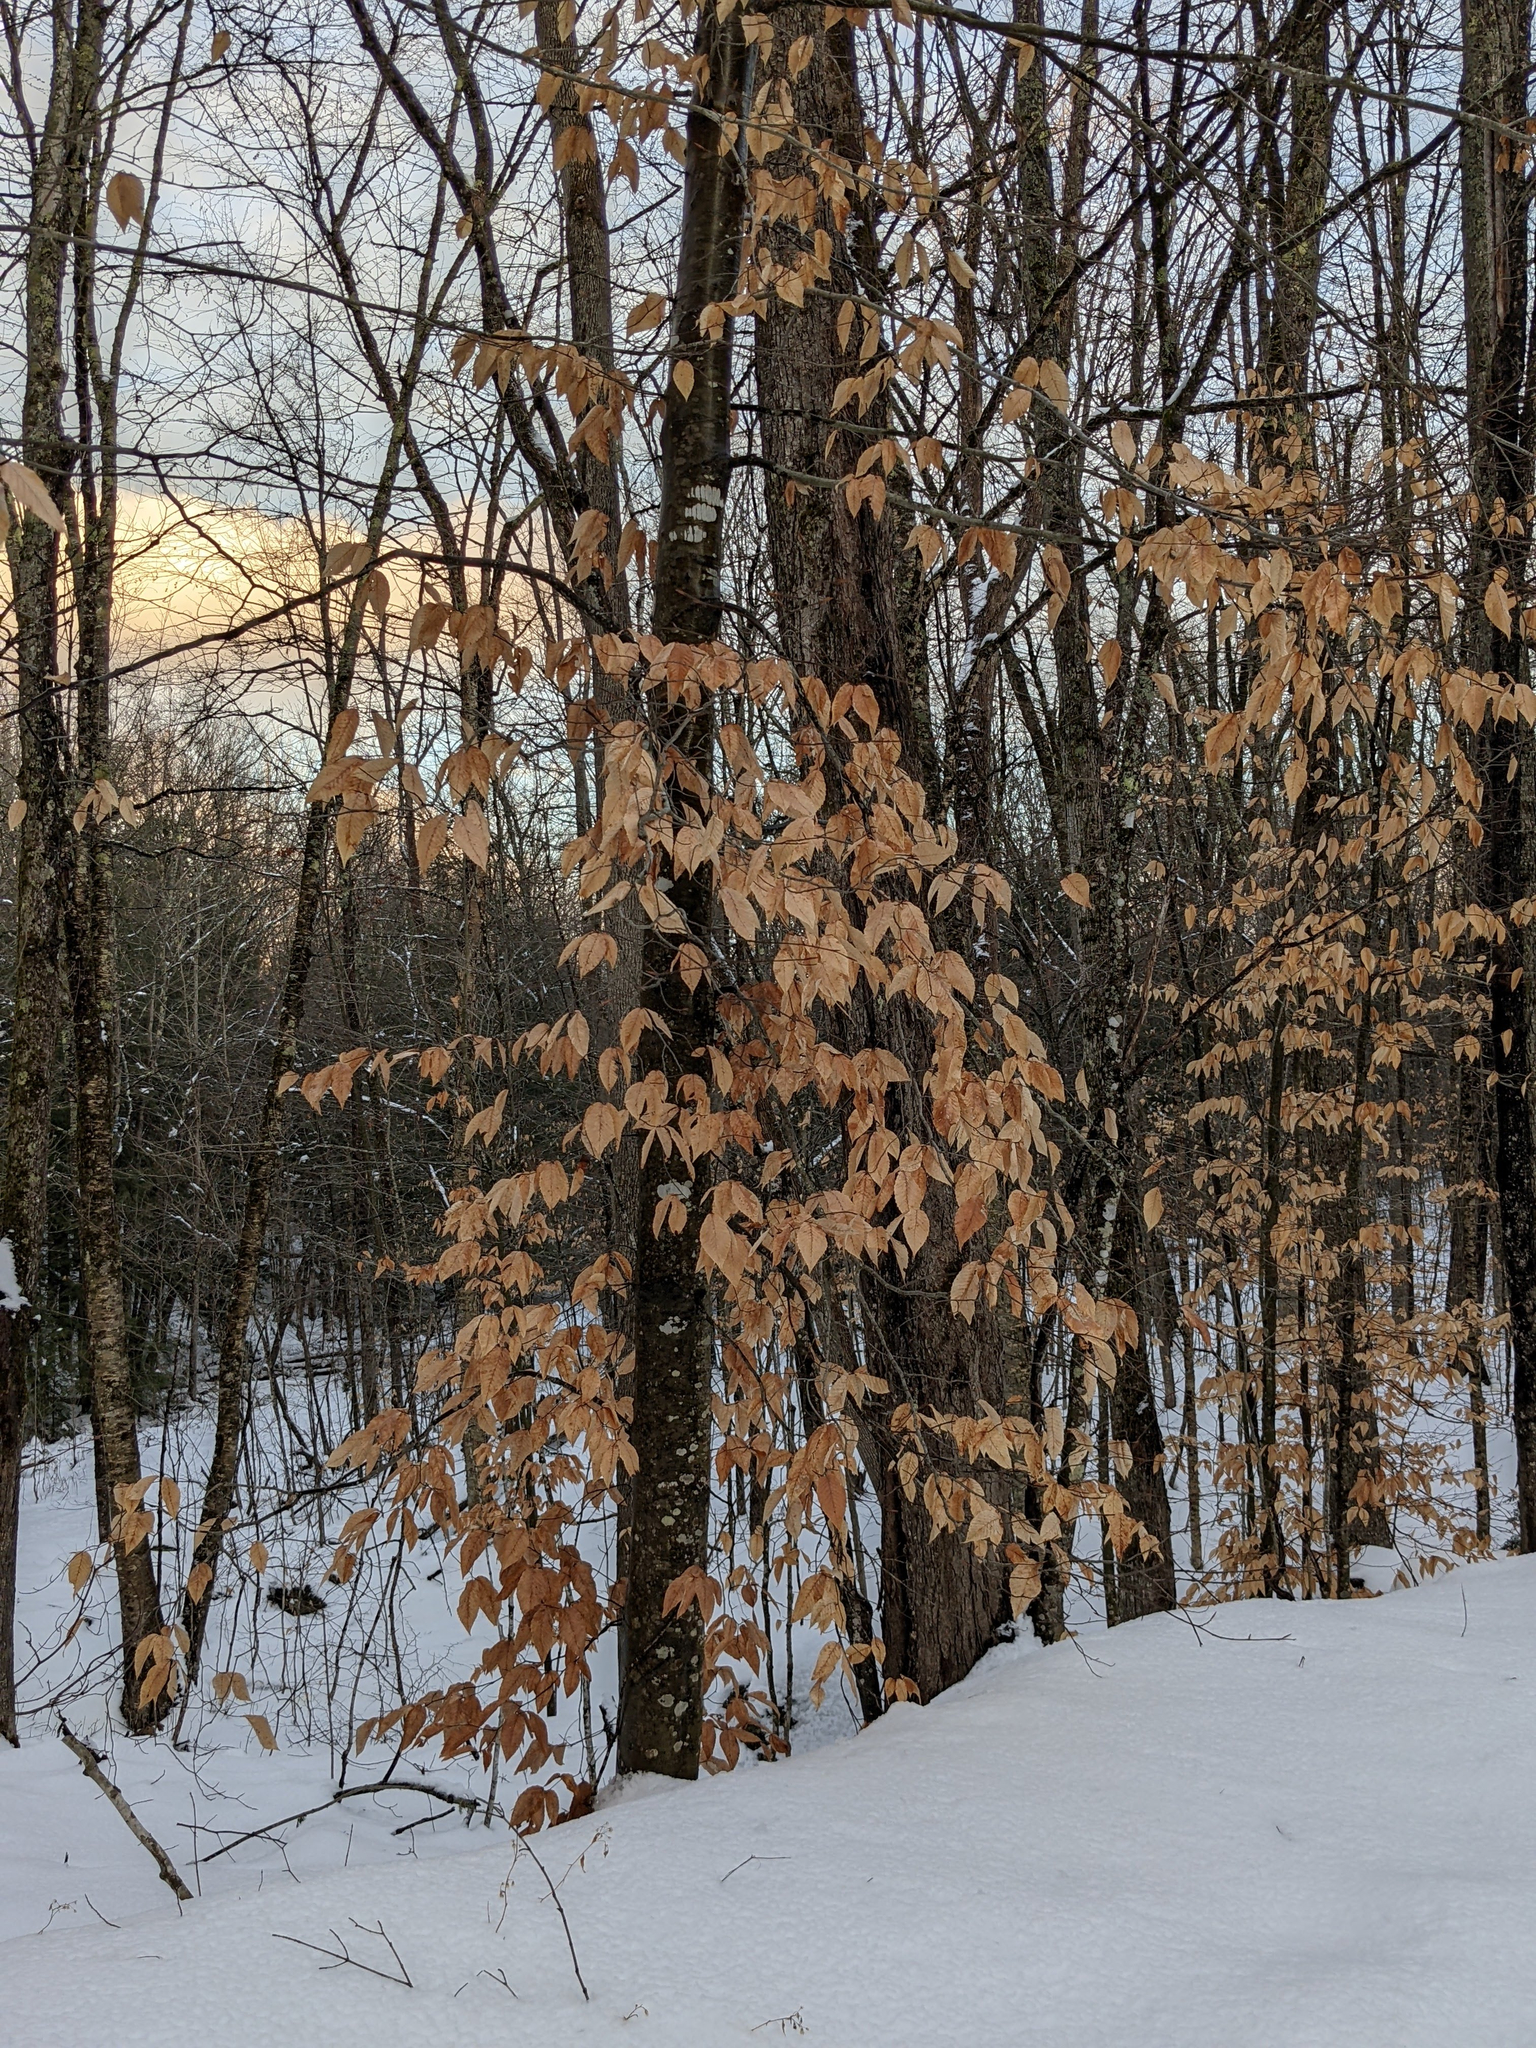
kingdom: Plantae
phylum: Tracheophyta
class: Magnoliopsida
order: Fagales
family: Fagaceae
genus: Fagus
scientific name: Fagus grandifolia
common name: American beech
